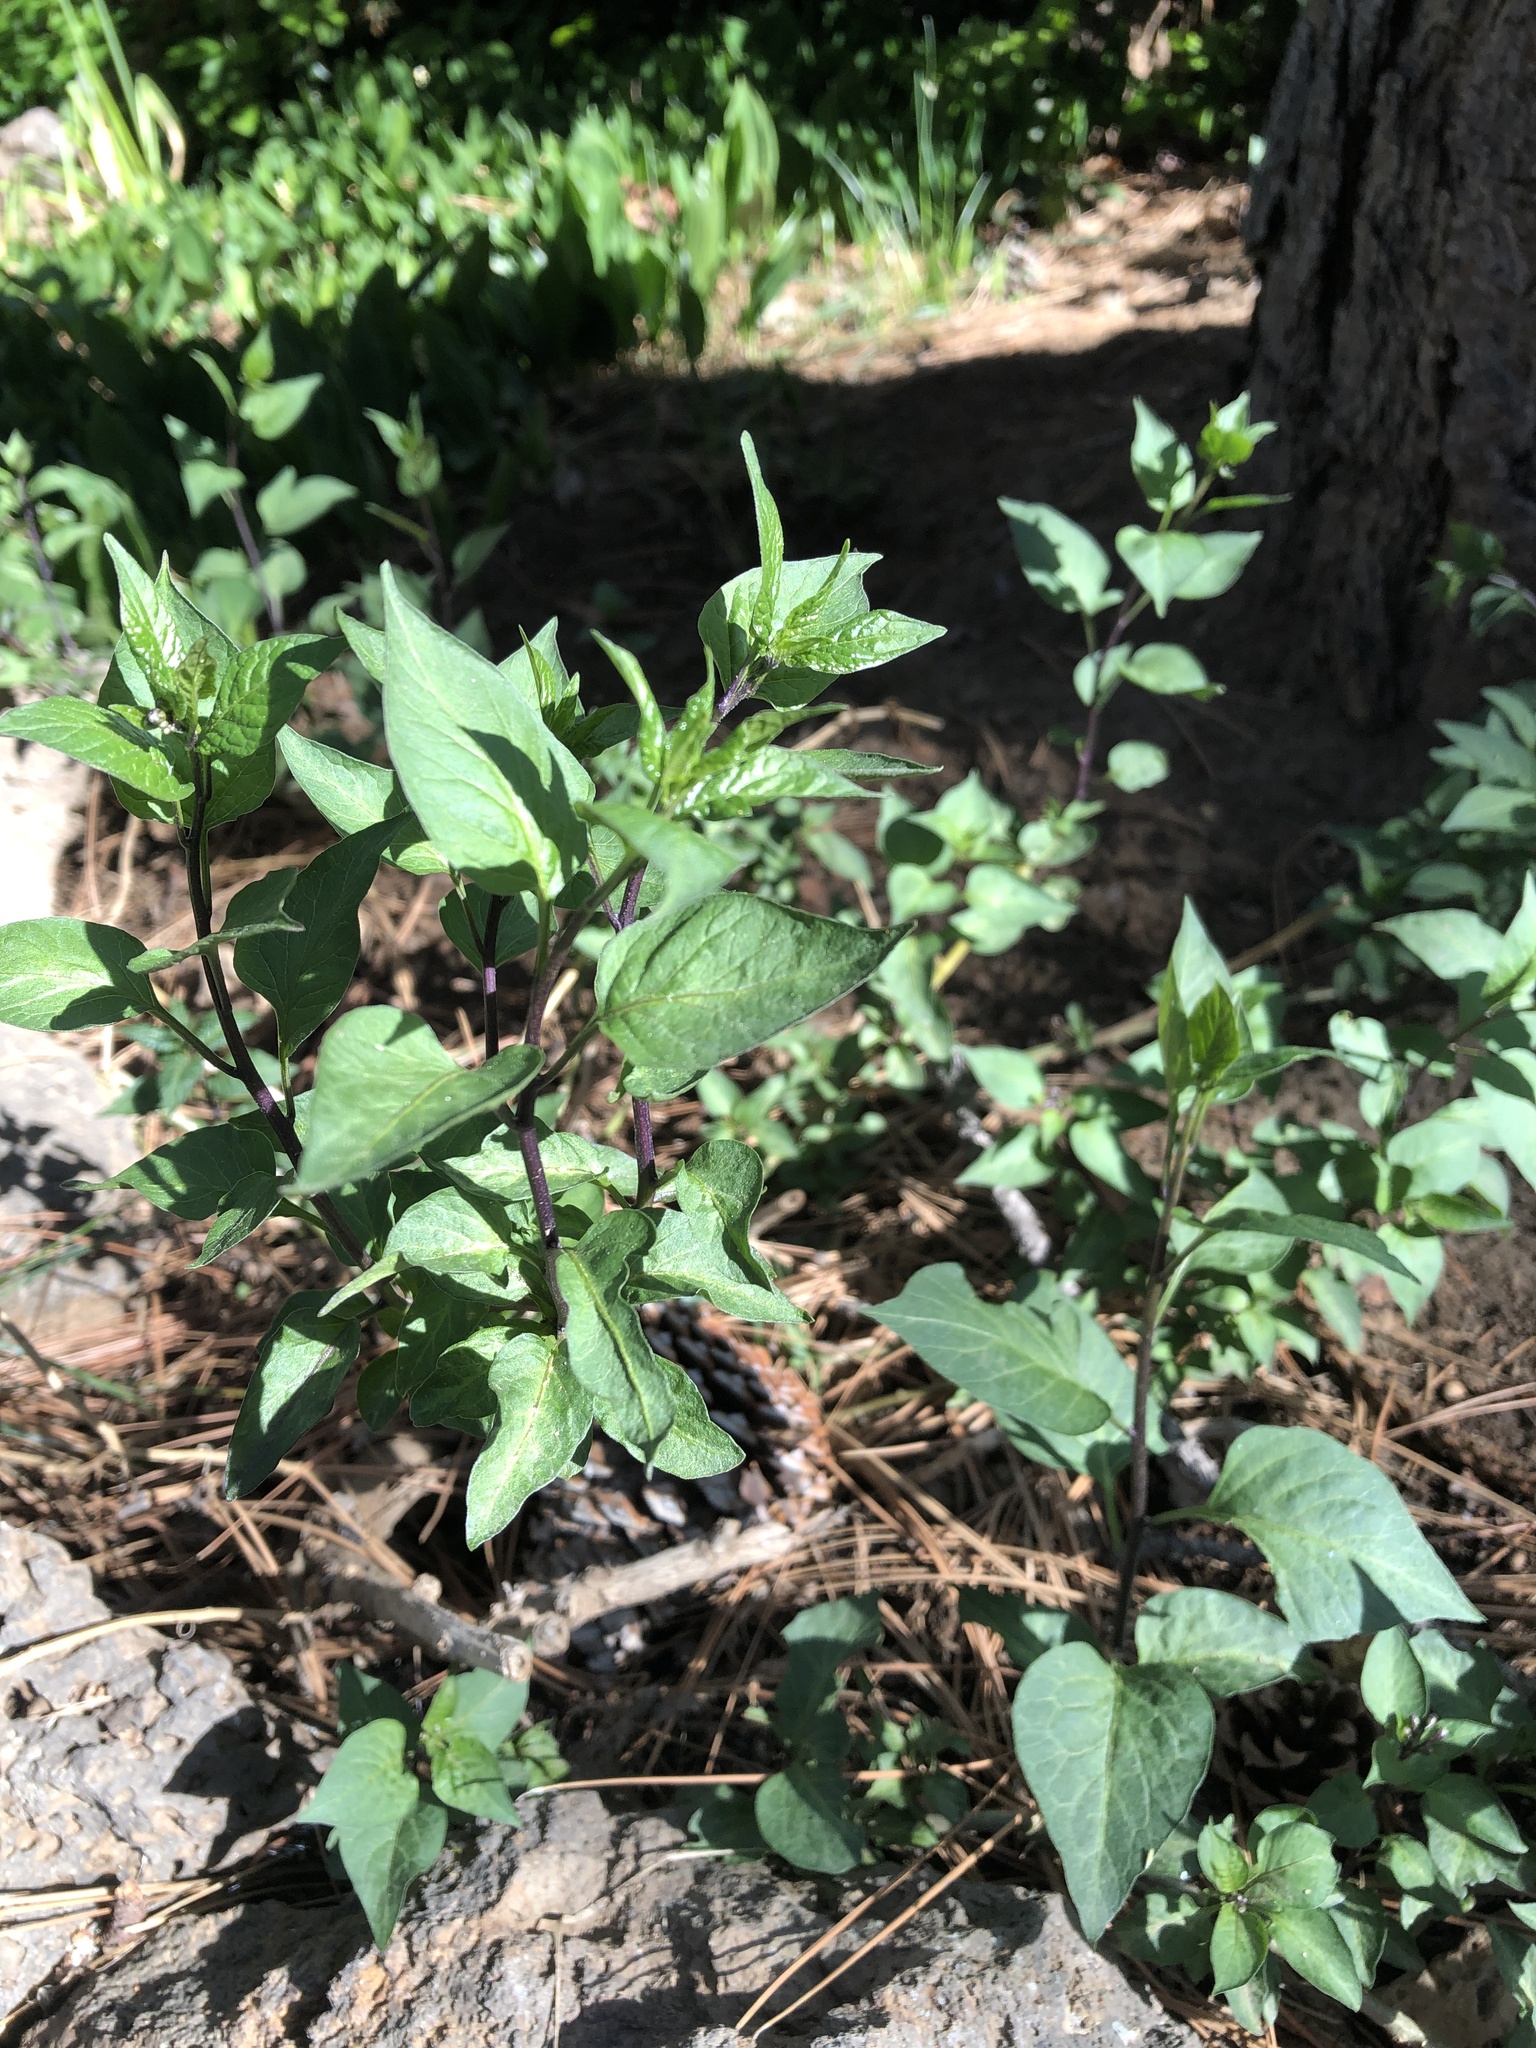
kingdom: Plantae
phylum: Tracheophyta
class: Magnoliopsida
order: Solanales
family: Solanaceae
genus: Solanum
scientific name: Solanum dulcamara
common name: Climbing nightshade
